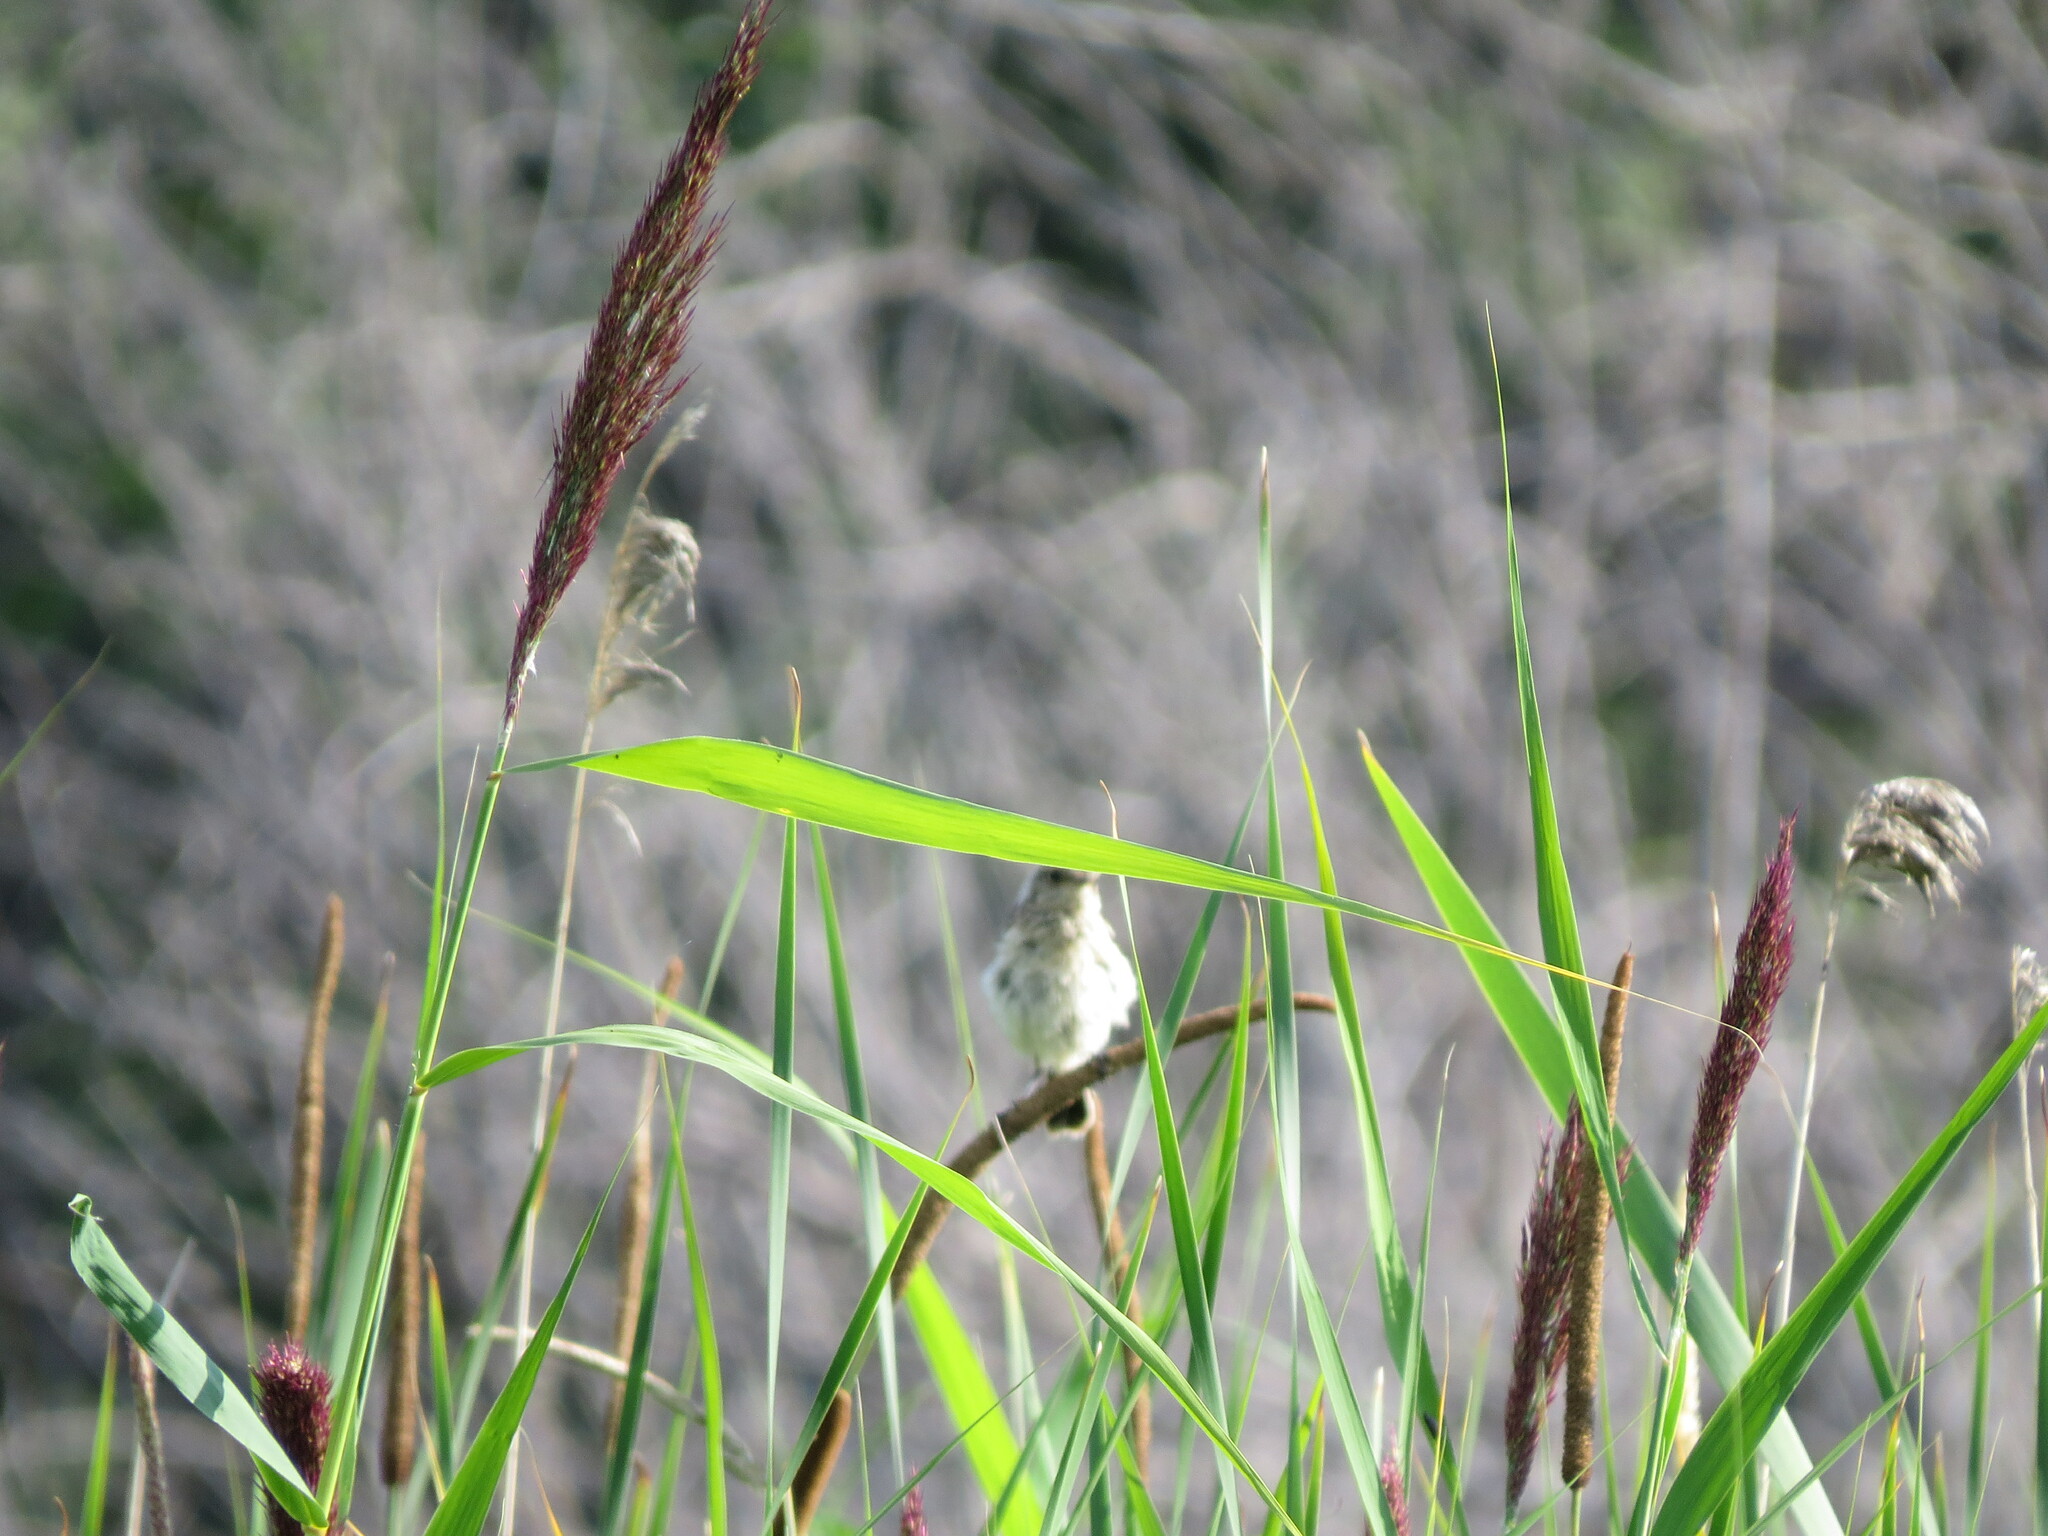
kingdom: Animalia
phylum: Chordata
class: Aves
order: Passeriformes
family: Muscicapidae
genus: Saxicola
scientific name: Saxicola maurus
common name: Siberian stonechat
